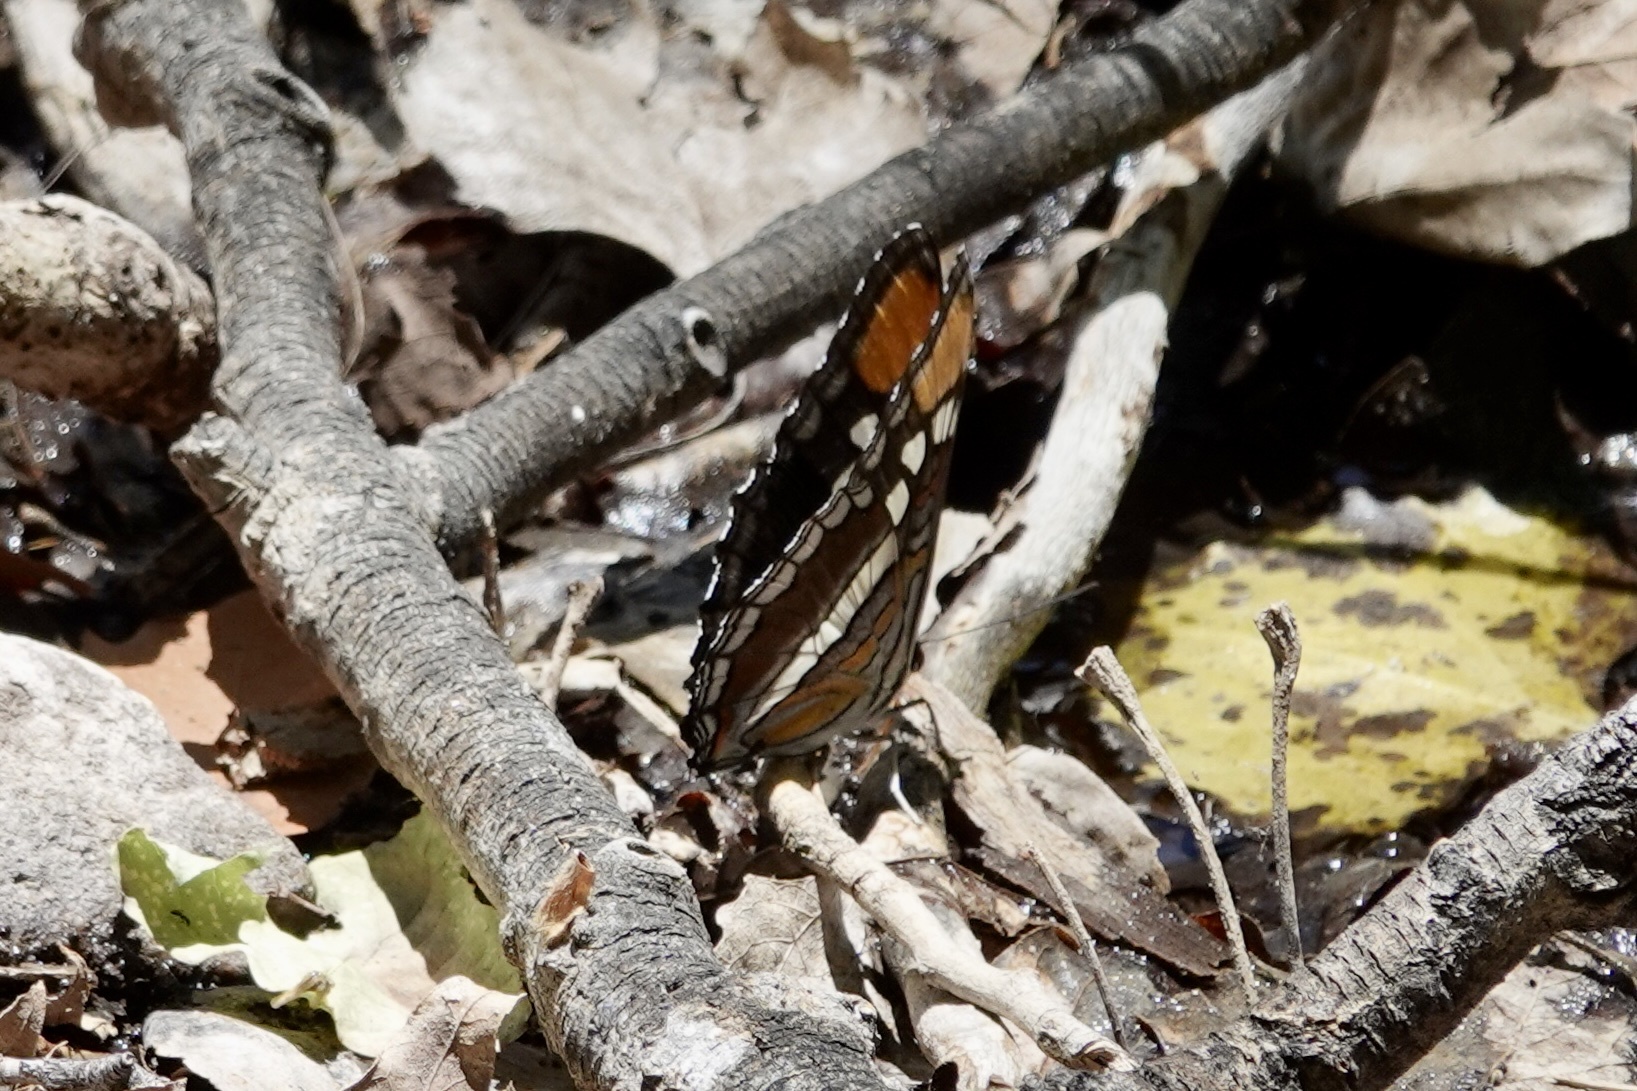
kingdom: Animalia
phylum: Arthropoda
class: Insecta
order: Lepidoptera
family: Nymphalidae
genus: Limenitis
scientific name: Limenitis bredowii
